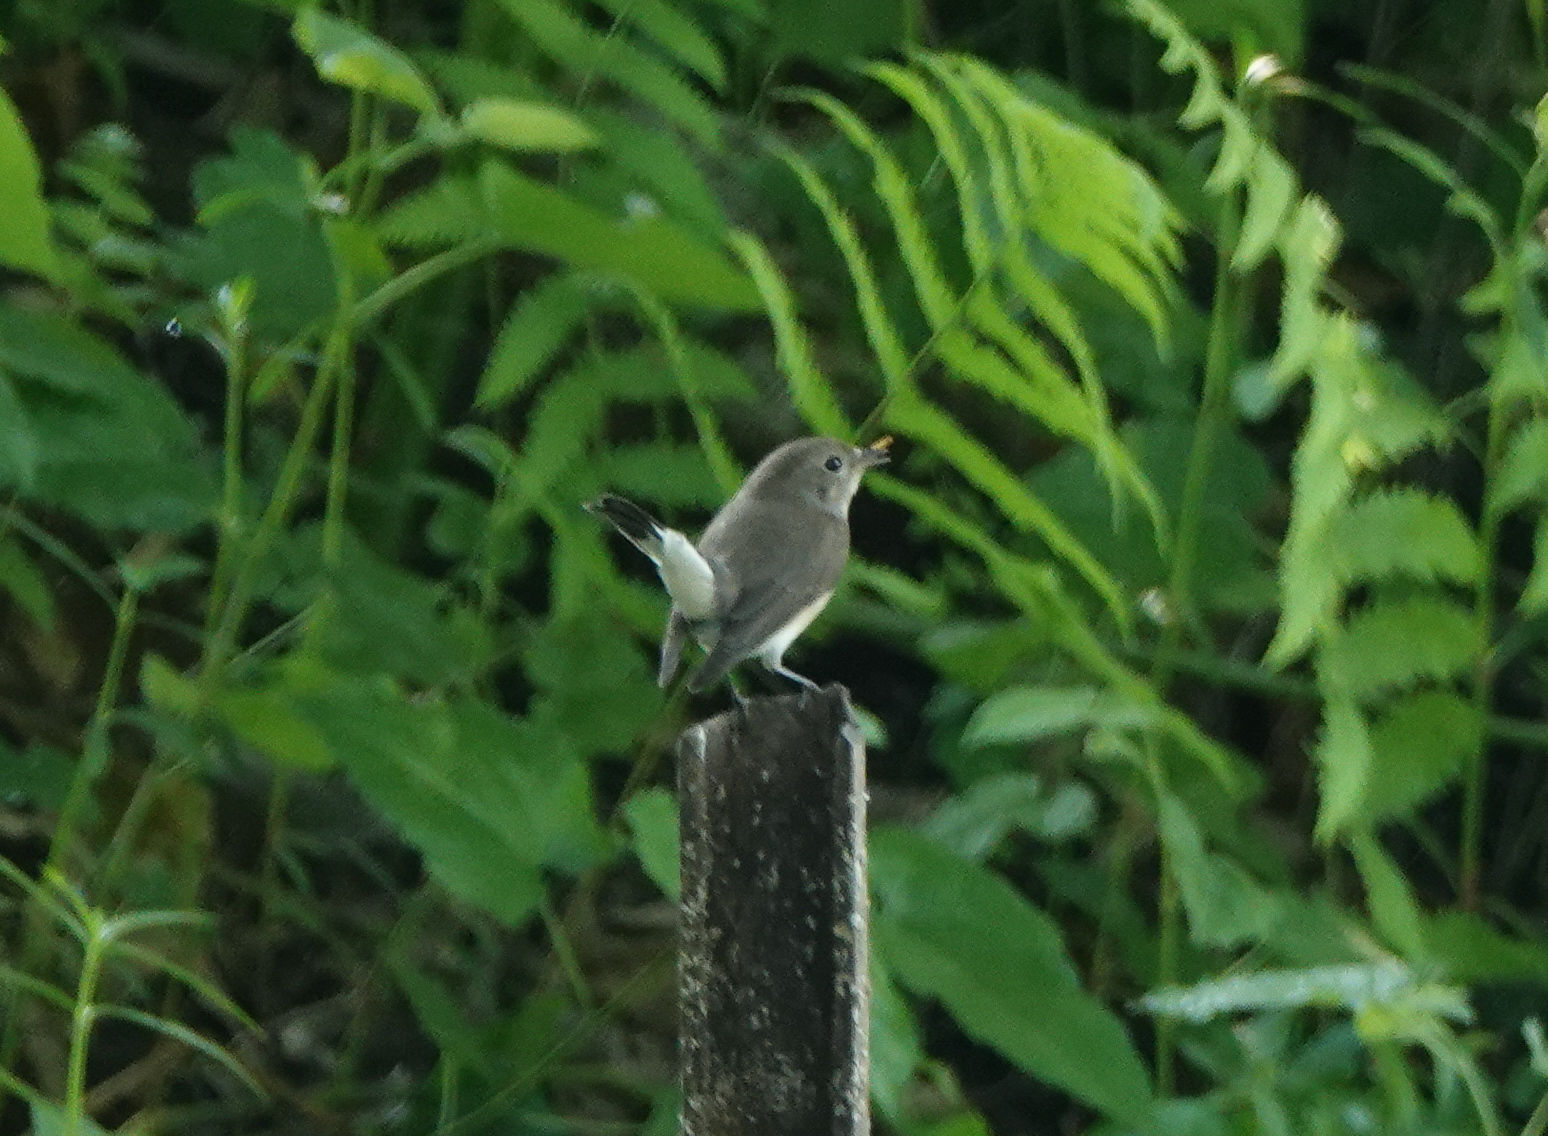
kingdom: Animalia
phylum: Chordata
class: Aves
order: Passeriformes
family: Muscicapidae
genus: Ficedula
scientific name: Ficedula albicilla
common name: Taiga flycatcher
